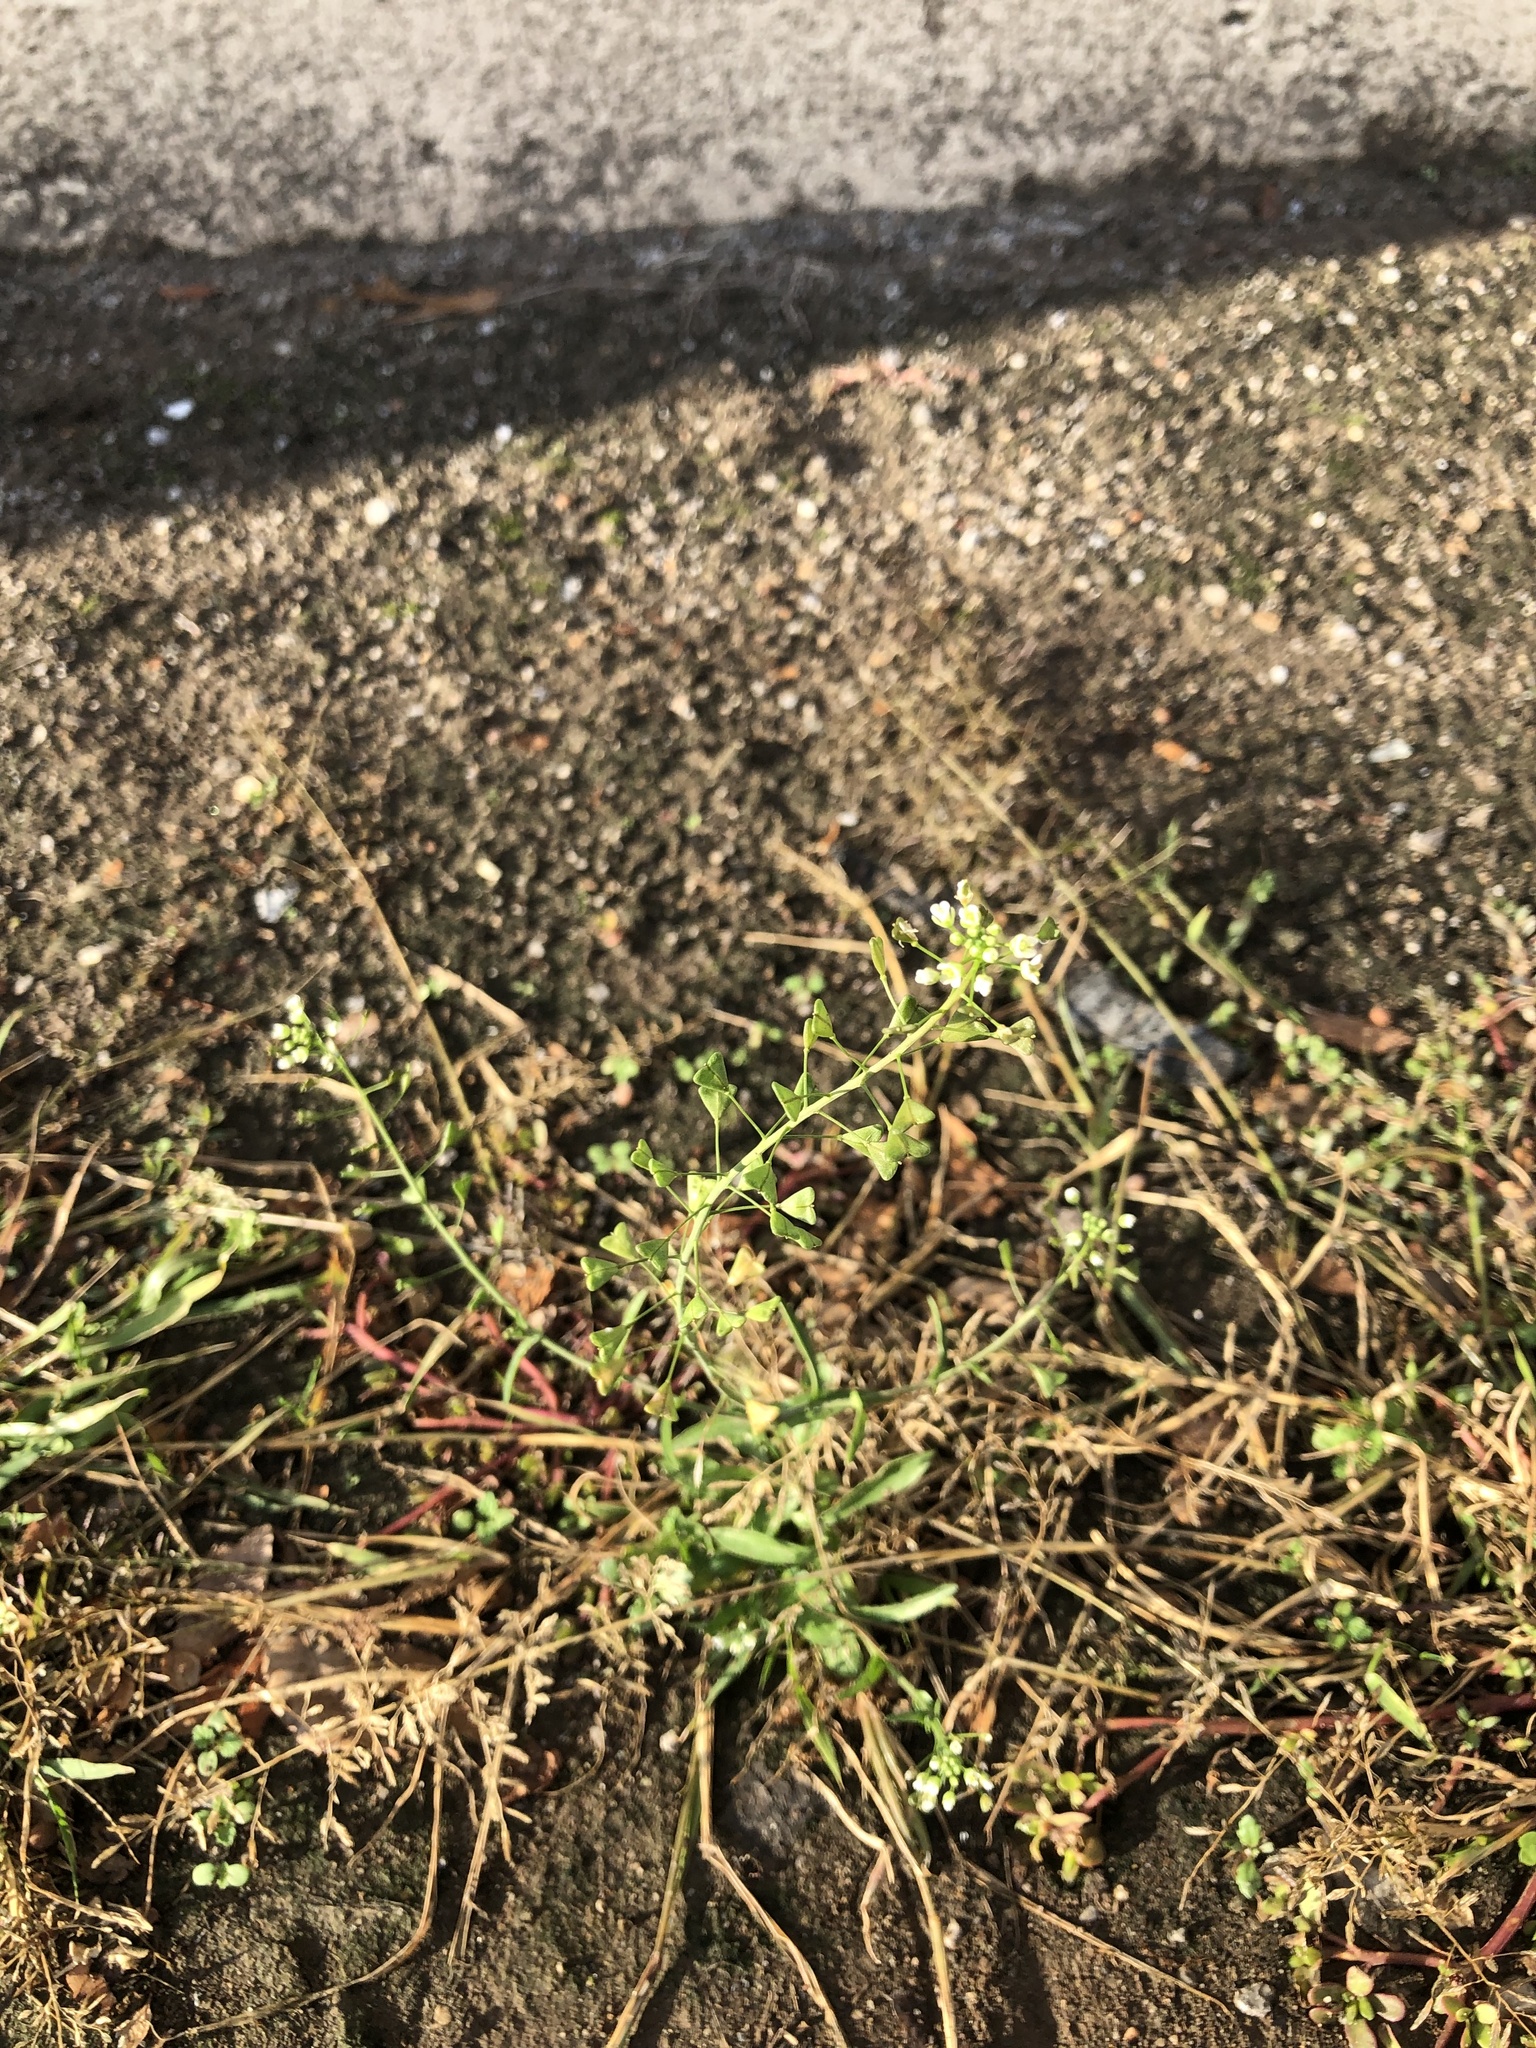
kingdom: Plantae
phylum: Tracheophyta
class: Magnoliopsida
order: Brassicales
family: Brassicaceae
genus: Capsella
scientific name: Capsella bursa-pastoris
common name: Shepherd's purse
